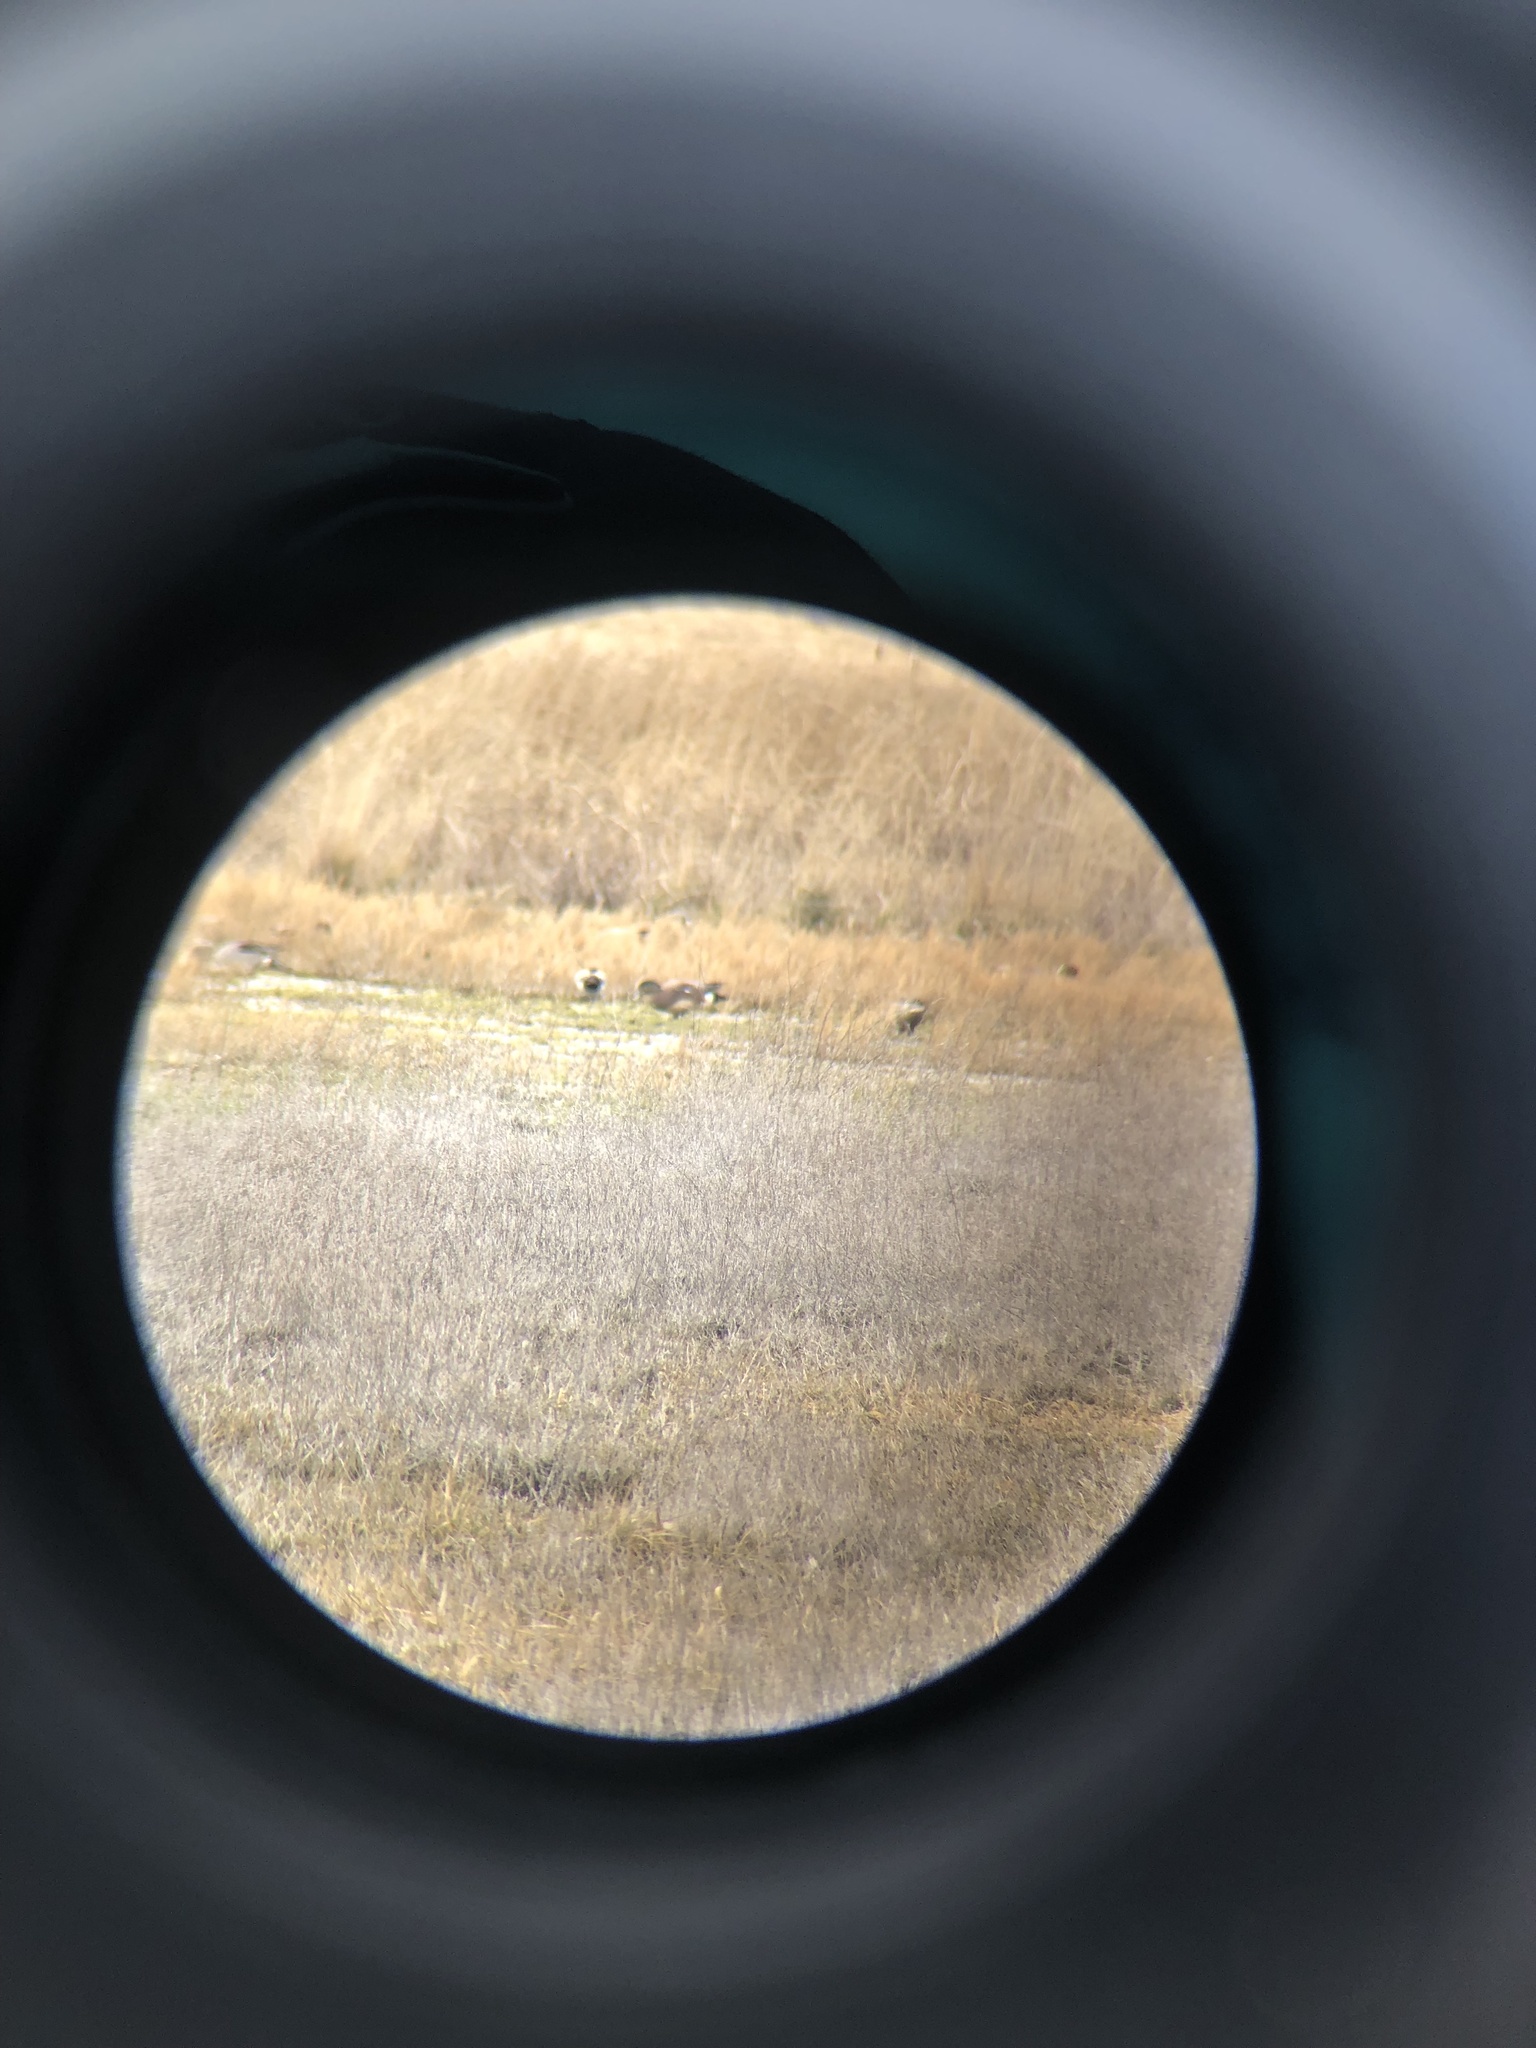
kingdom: Animalia
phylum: Chordata
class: Aves
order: Anseriformes
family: Anatidae
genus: Mareca
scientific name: Mareca americana
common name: American wigeon
